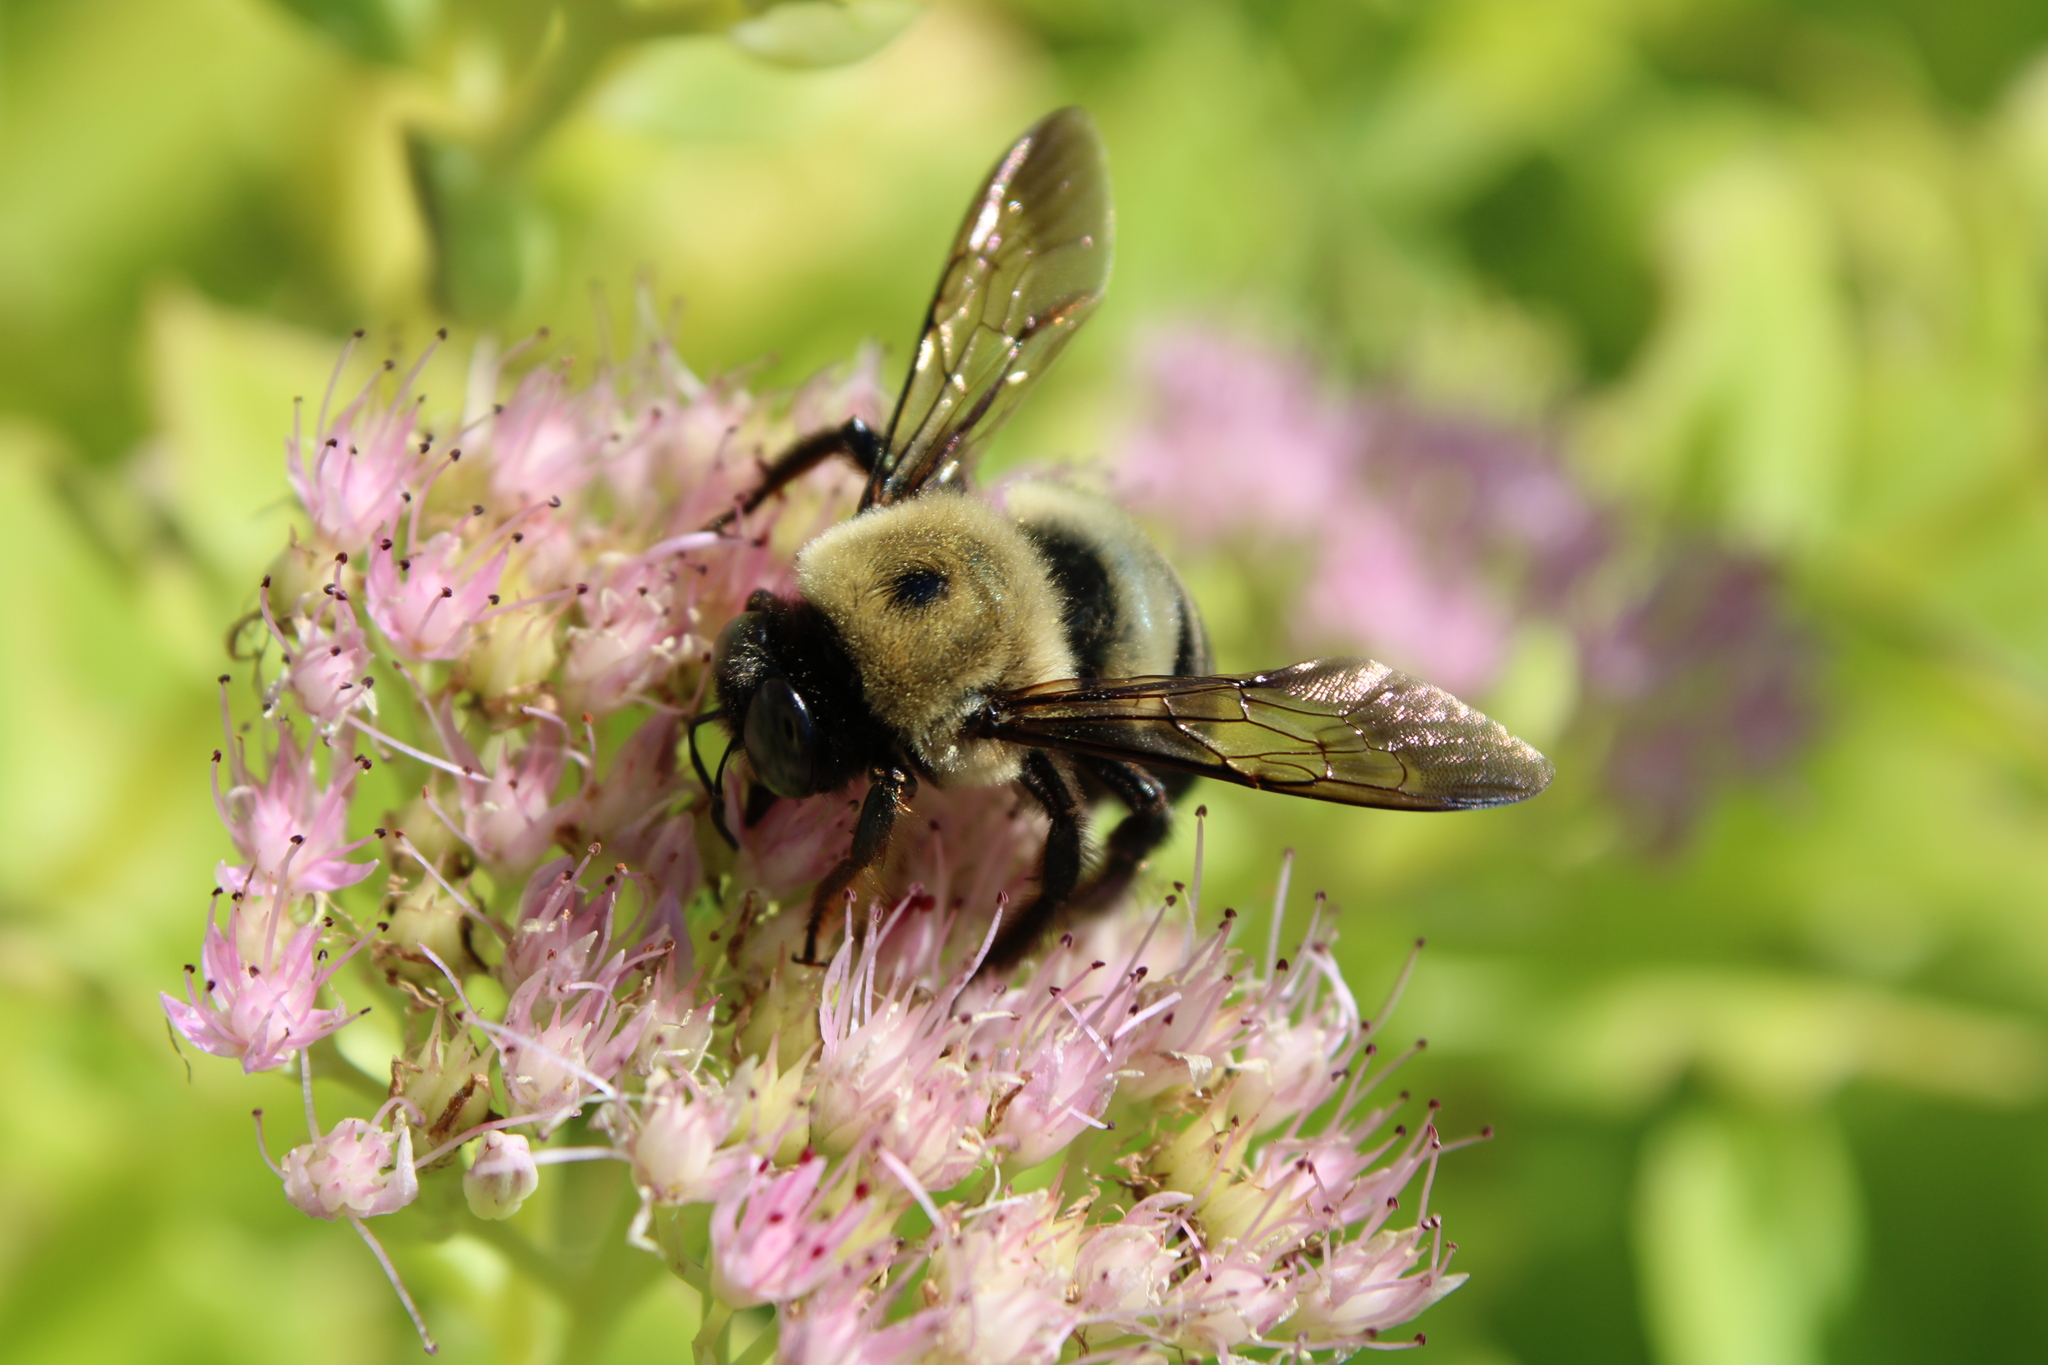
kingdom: Animalia
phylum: Arthropoda
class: Insecta
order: Hymenoptera
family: Apidae
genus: Xylocopa
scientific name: Xylocopa virginica
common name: Carpenter bee
